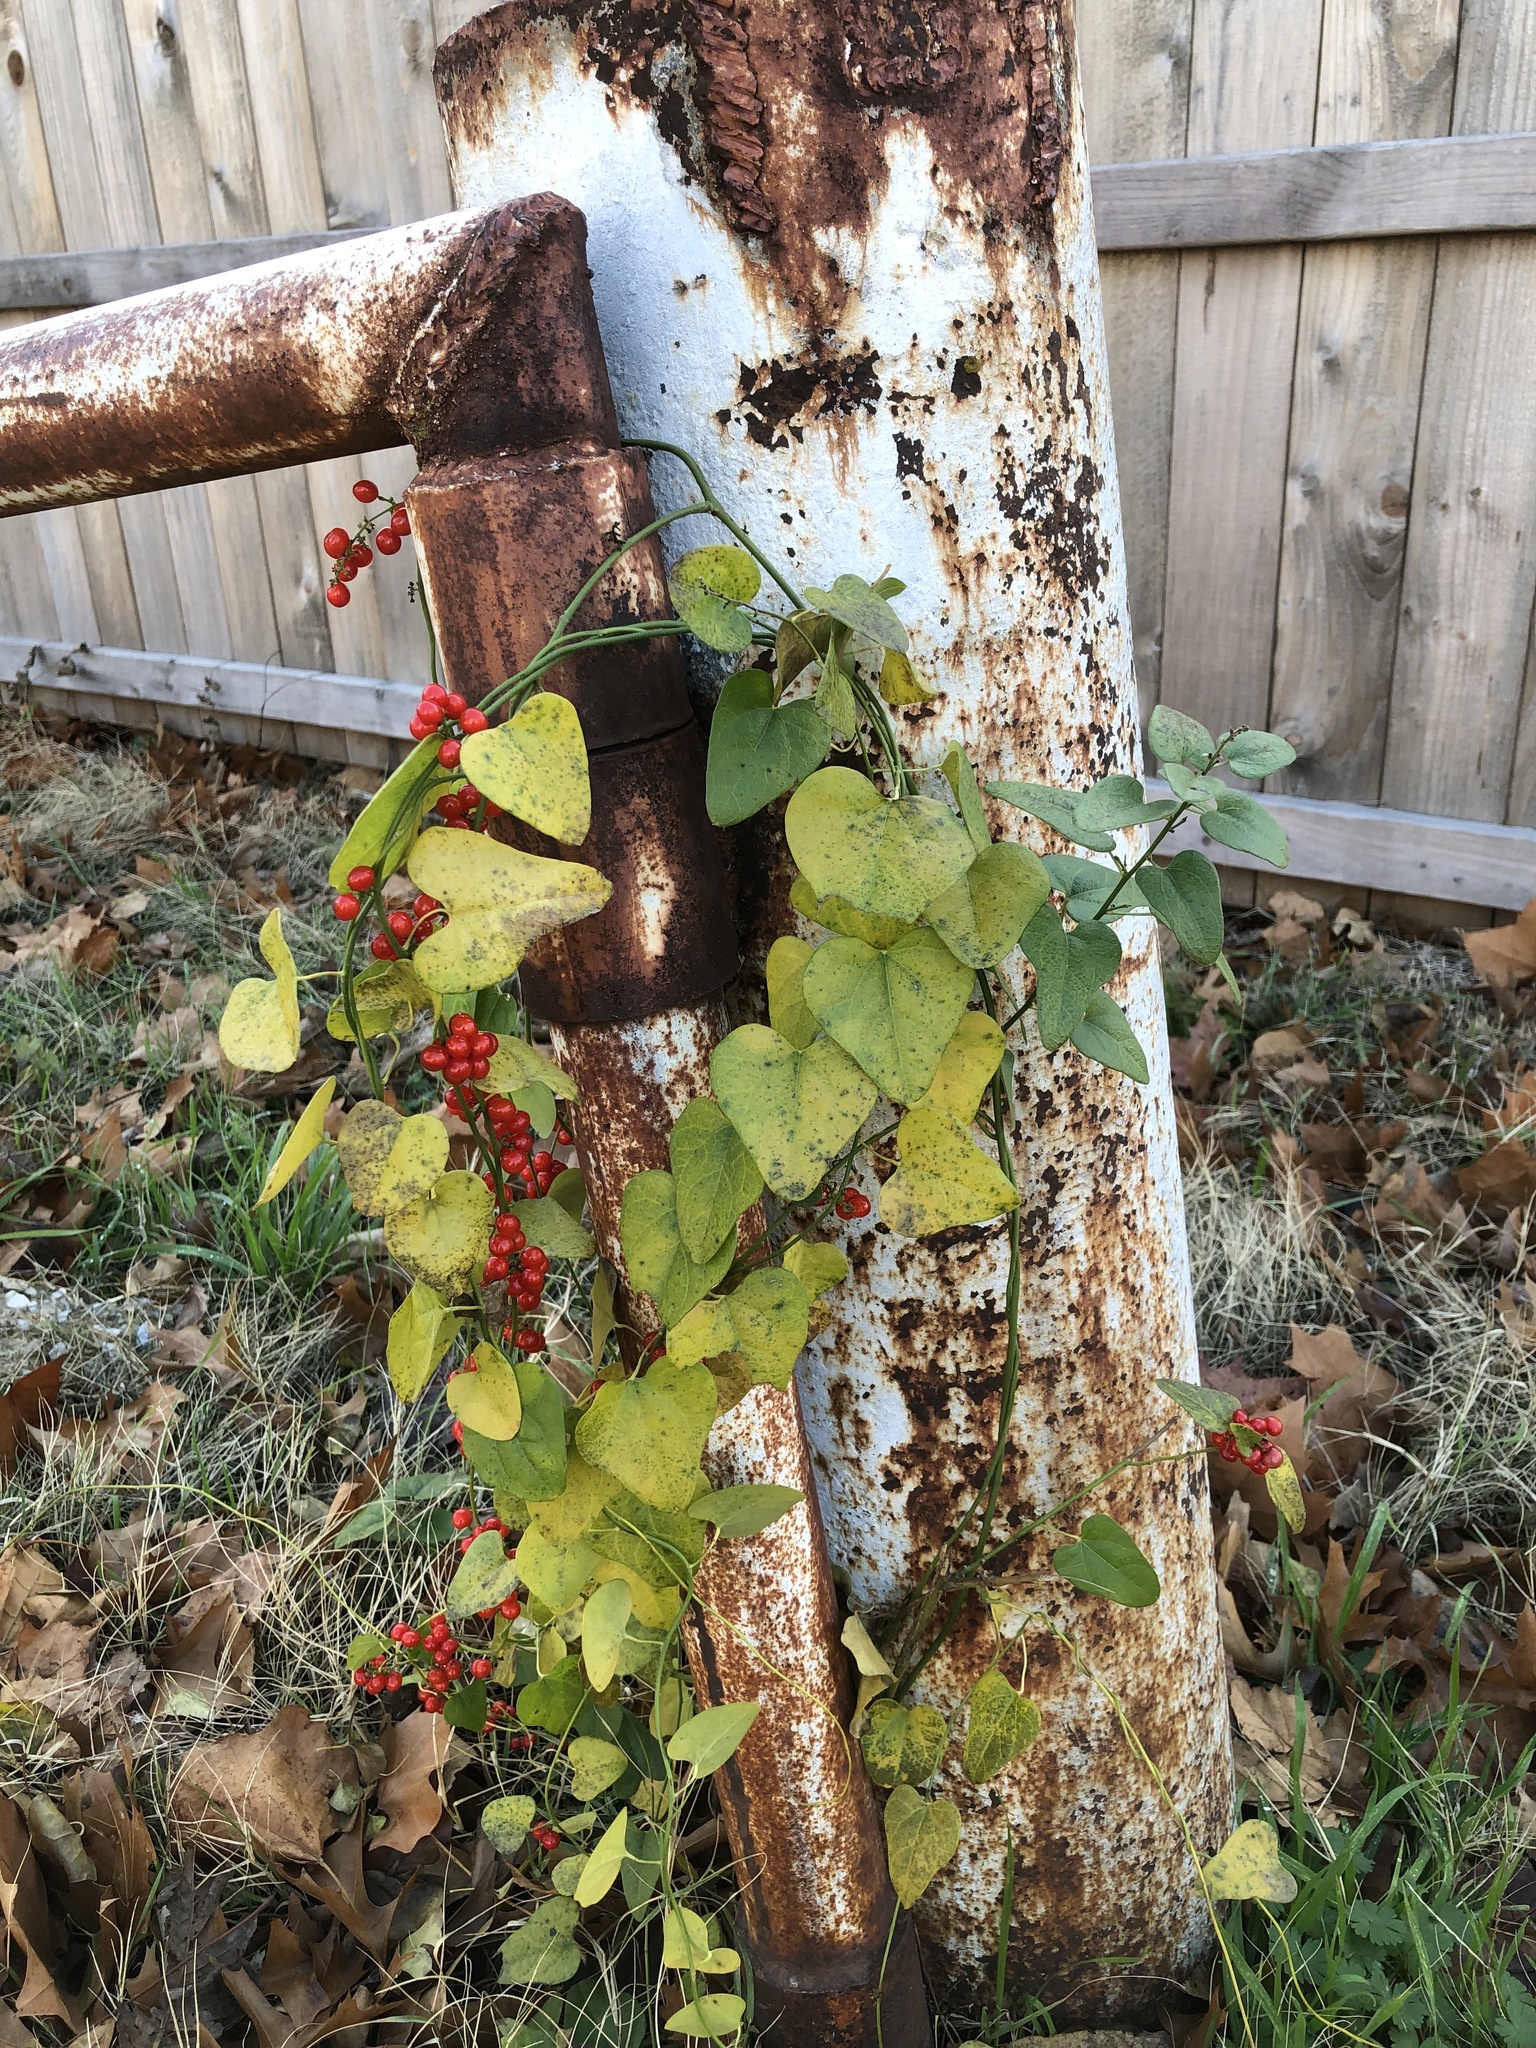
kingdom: Plantae
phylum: Tracheophyta
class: Magnoliopsida
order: Ranunculales
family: Menispermaceae
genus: Cocculus
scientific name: Cocculus carolinus
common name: Carolina moonseed
